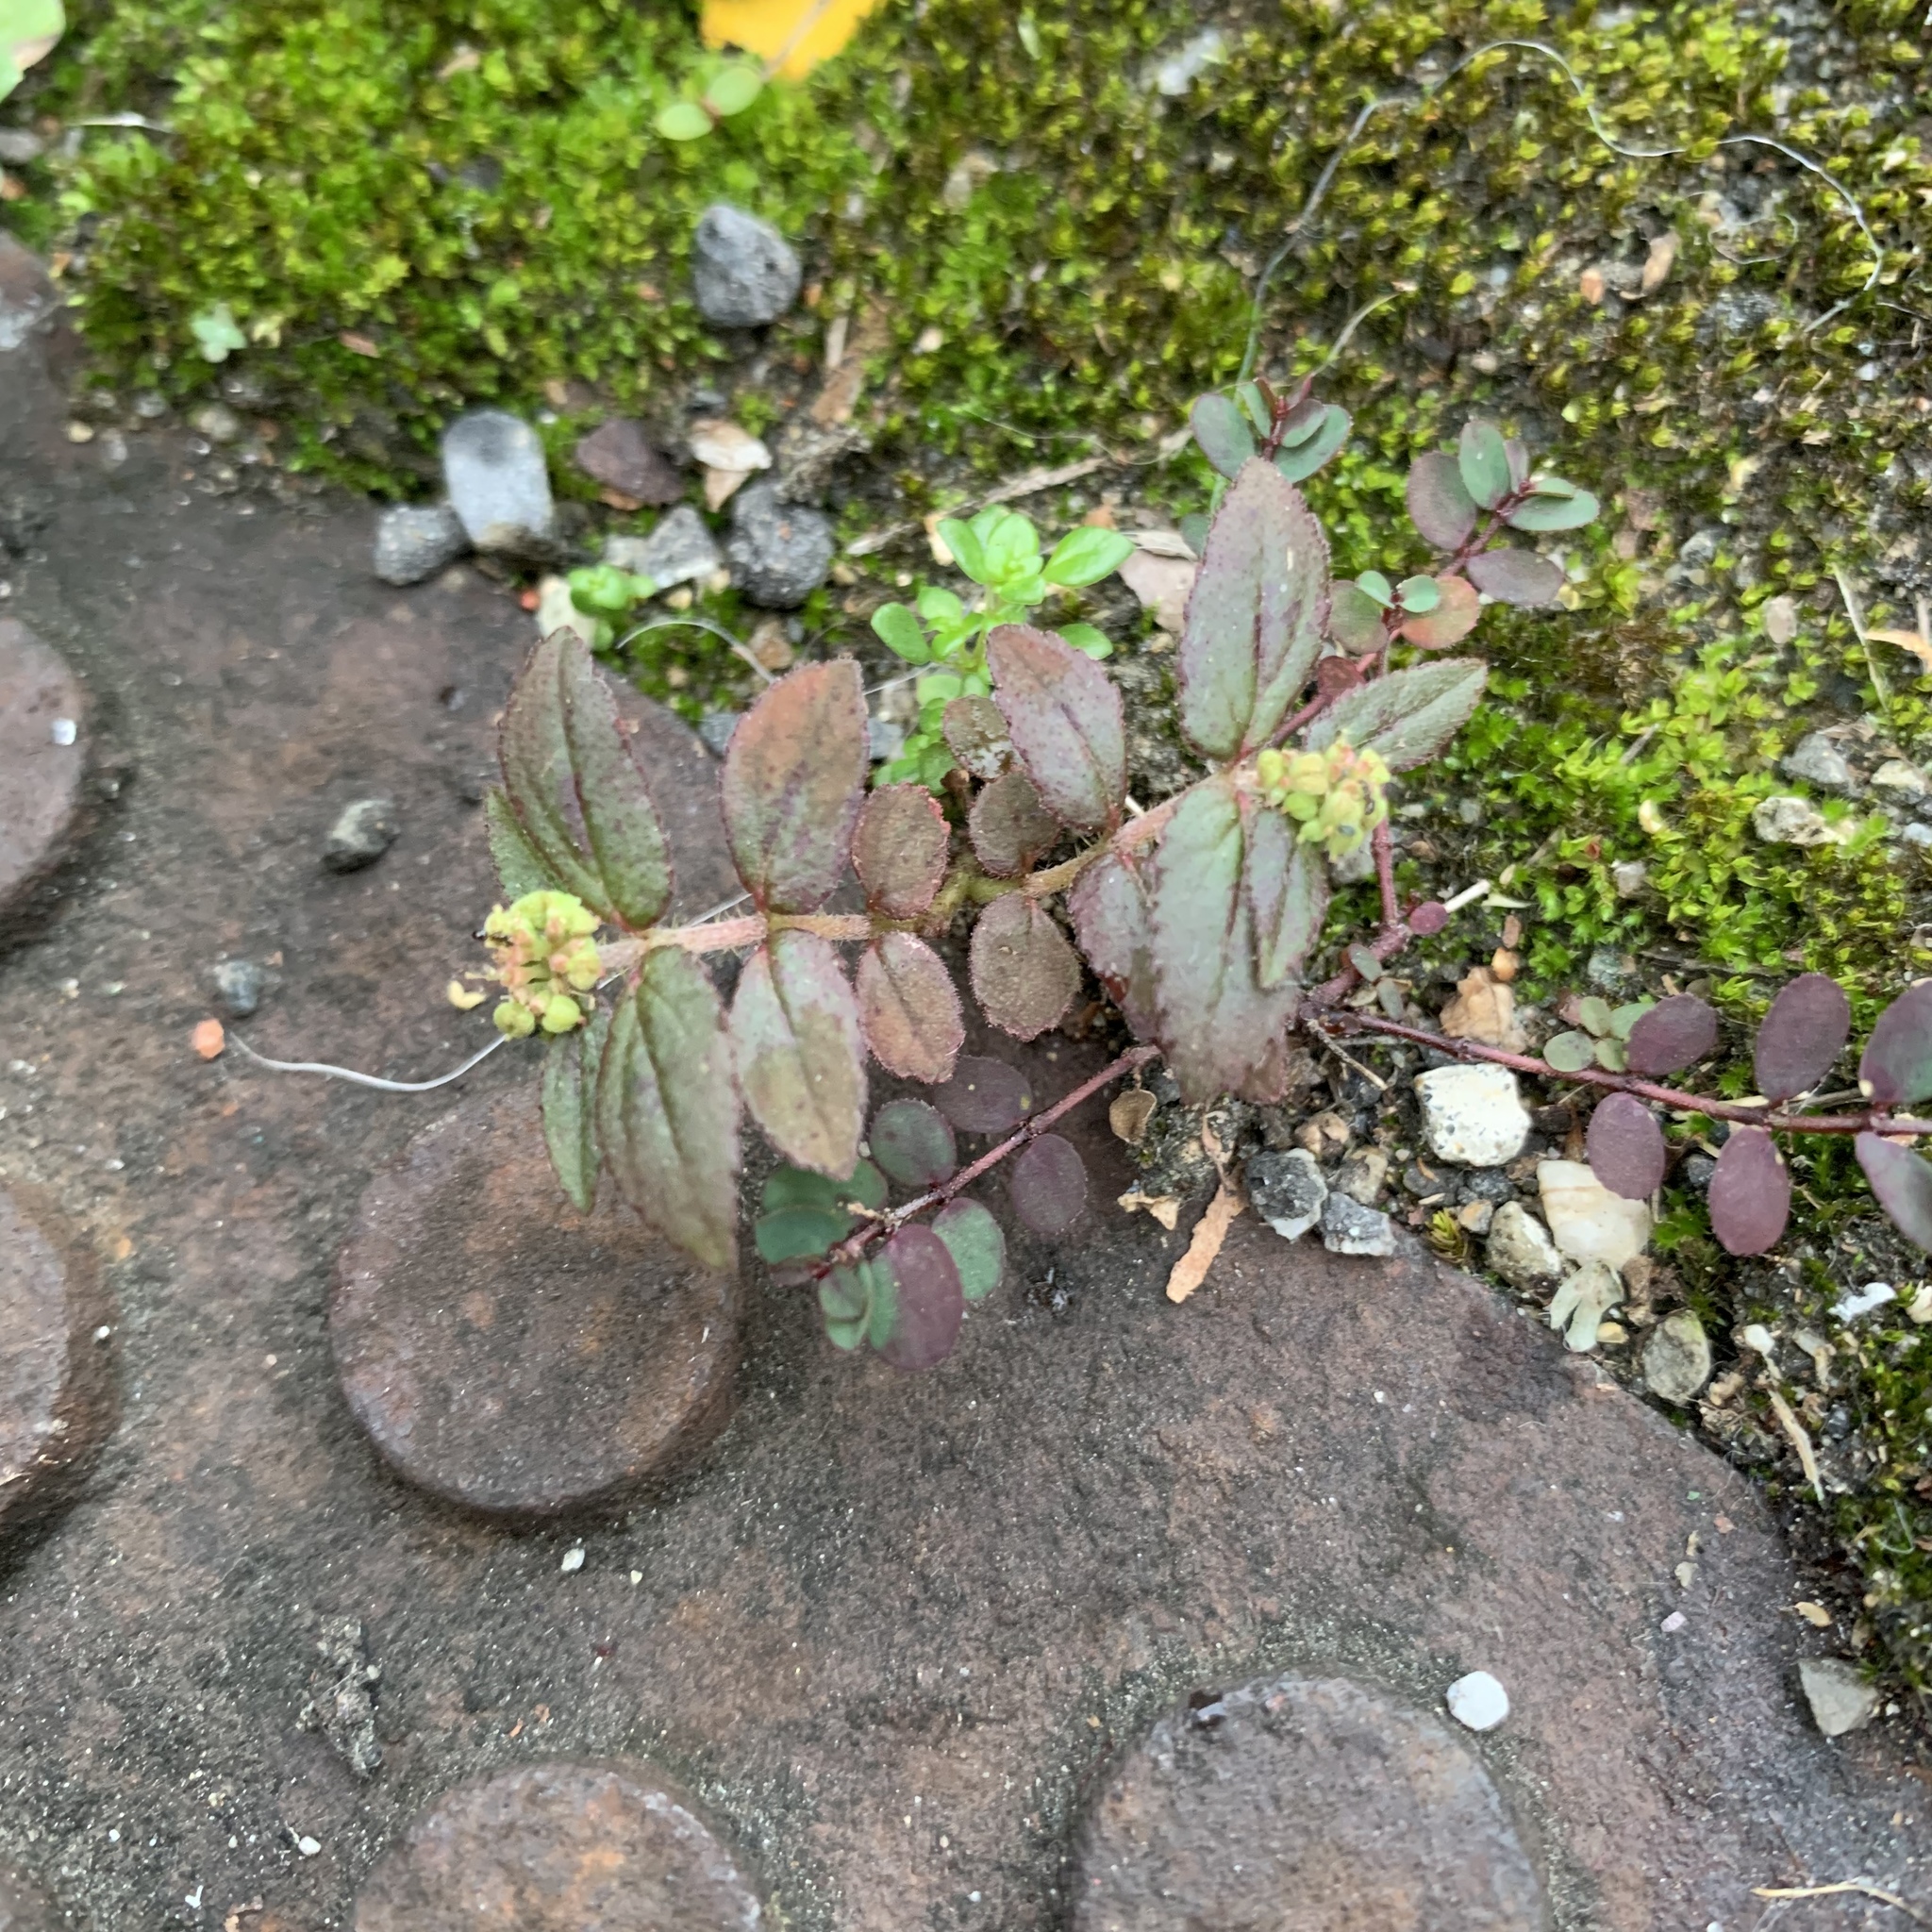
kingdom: Plantae
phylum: Tracheophyta
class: Magnoliopsida
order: Malpighiales
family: Euphorbiaceae
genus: Euphorbia
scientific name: Euphorbia hirta
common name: Pillpod sandmat
